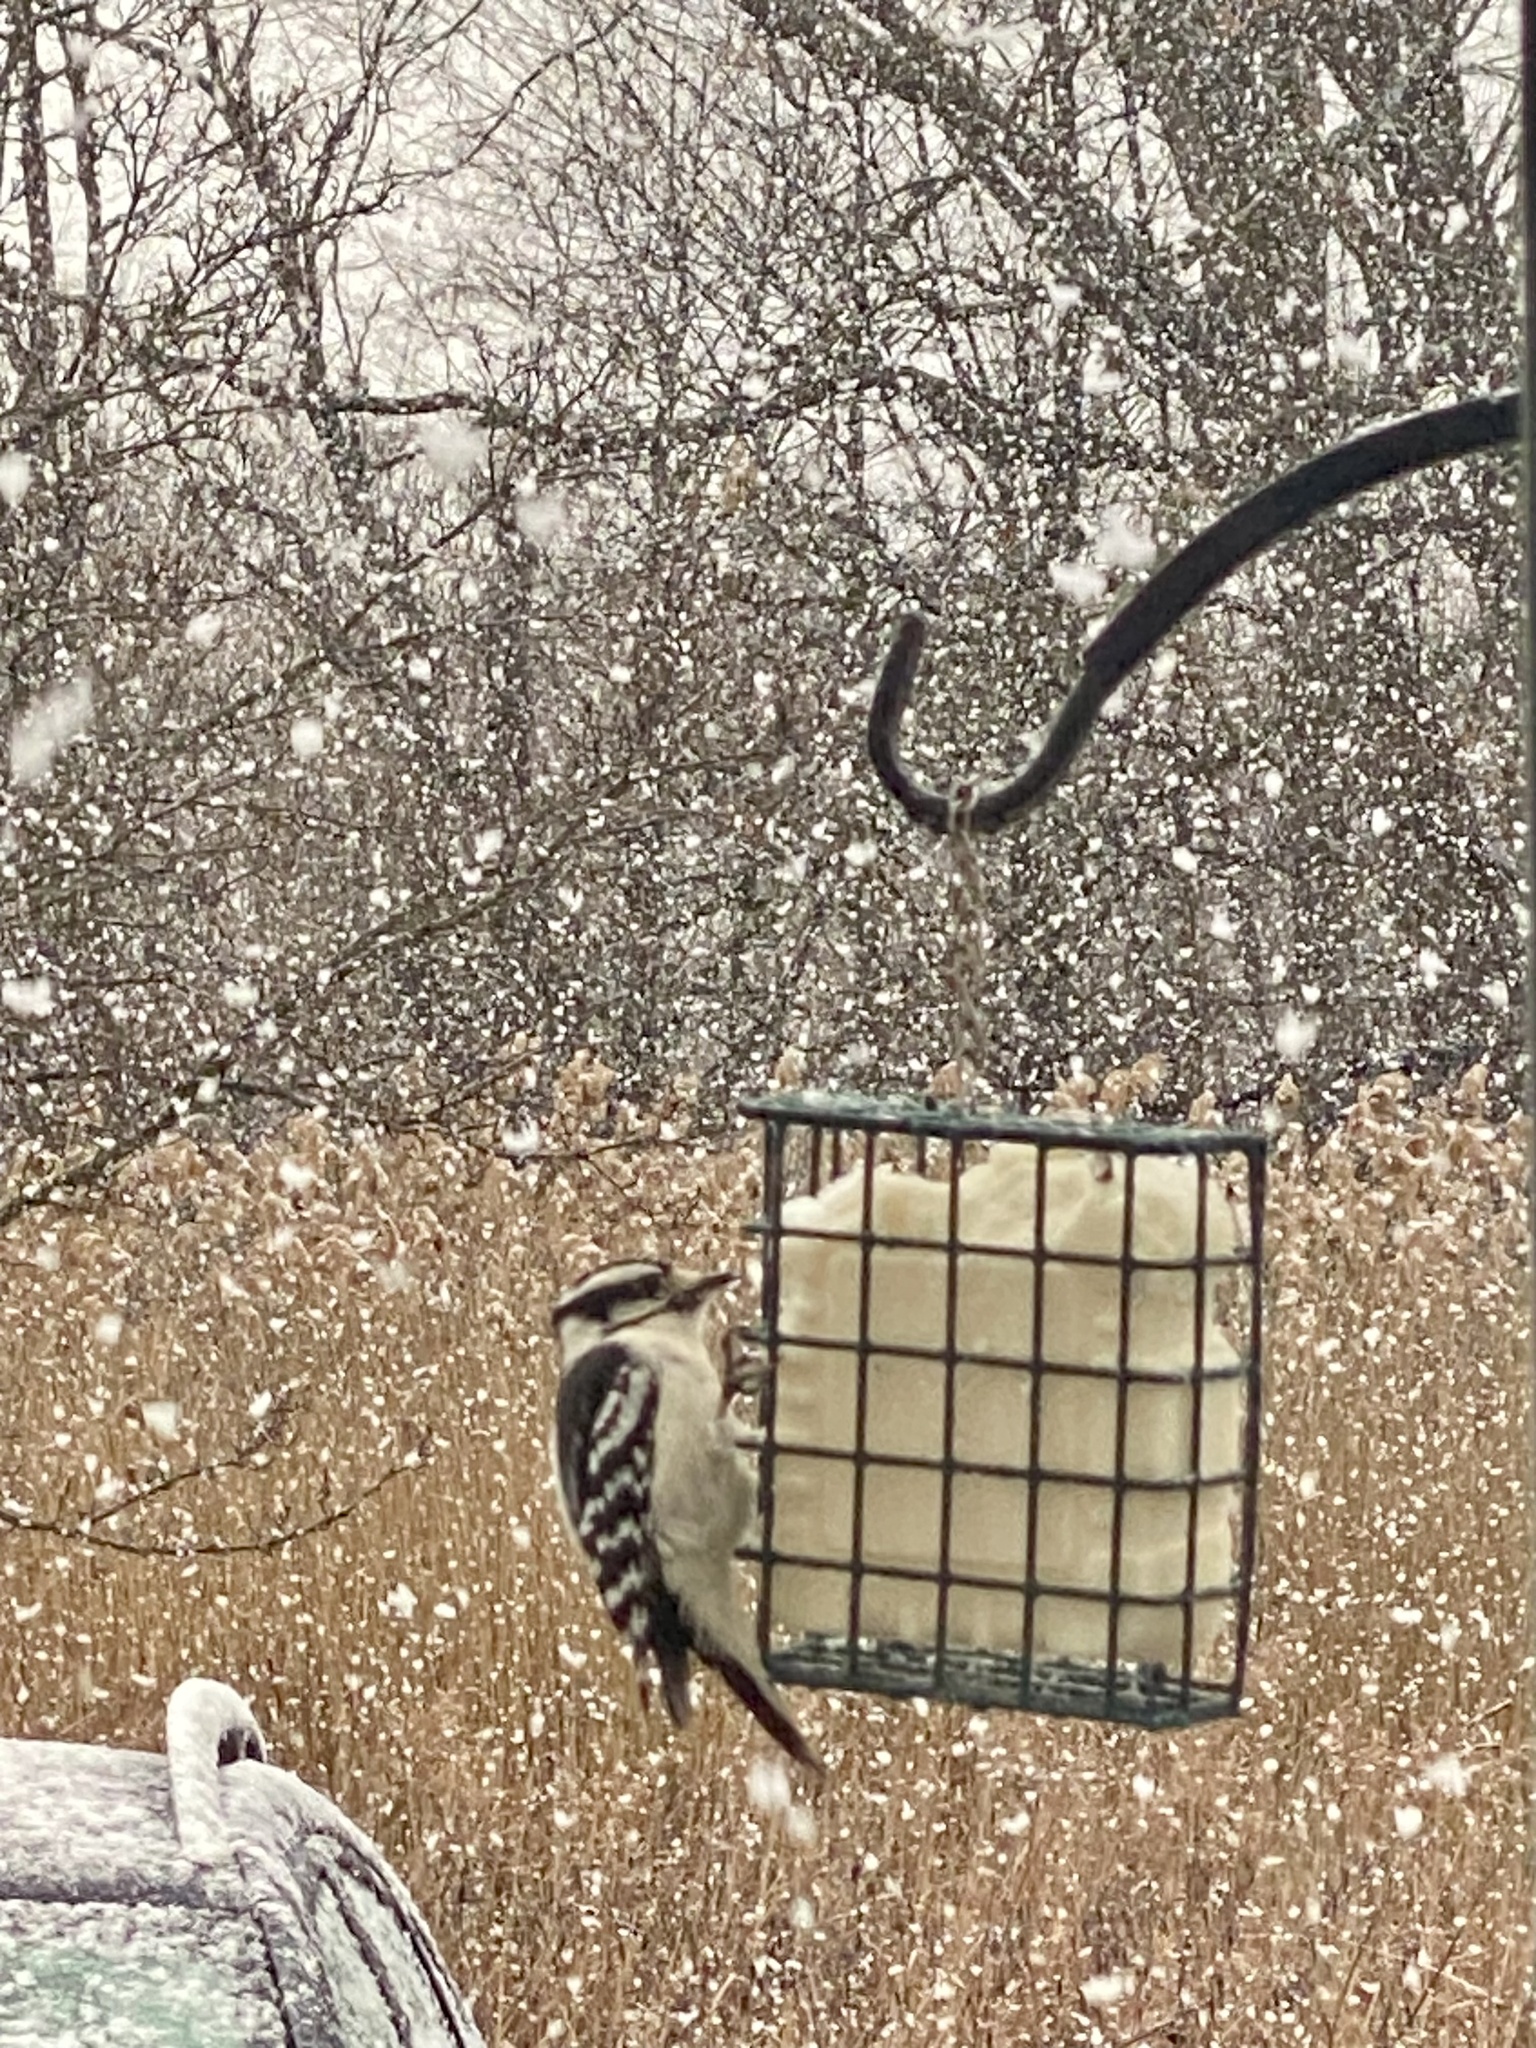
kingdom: Animalia
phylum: Chordata
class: Aves
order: Piciformes
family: Picidae
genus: Dryobates
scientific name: Dryobates pubescens
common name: Downy woodpecker
